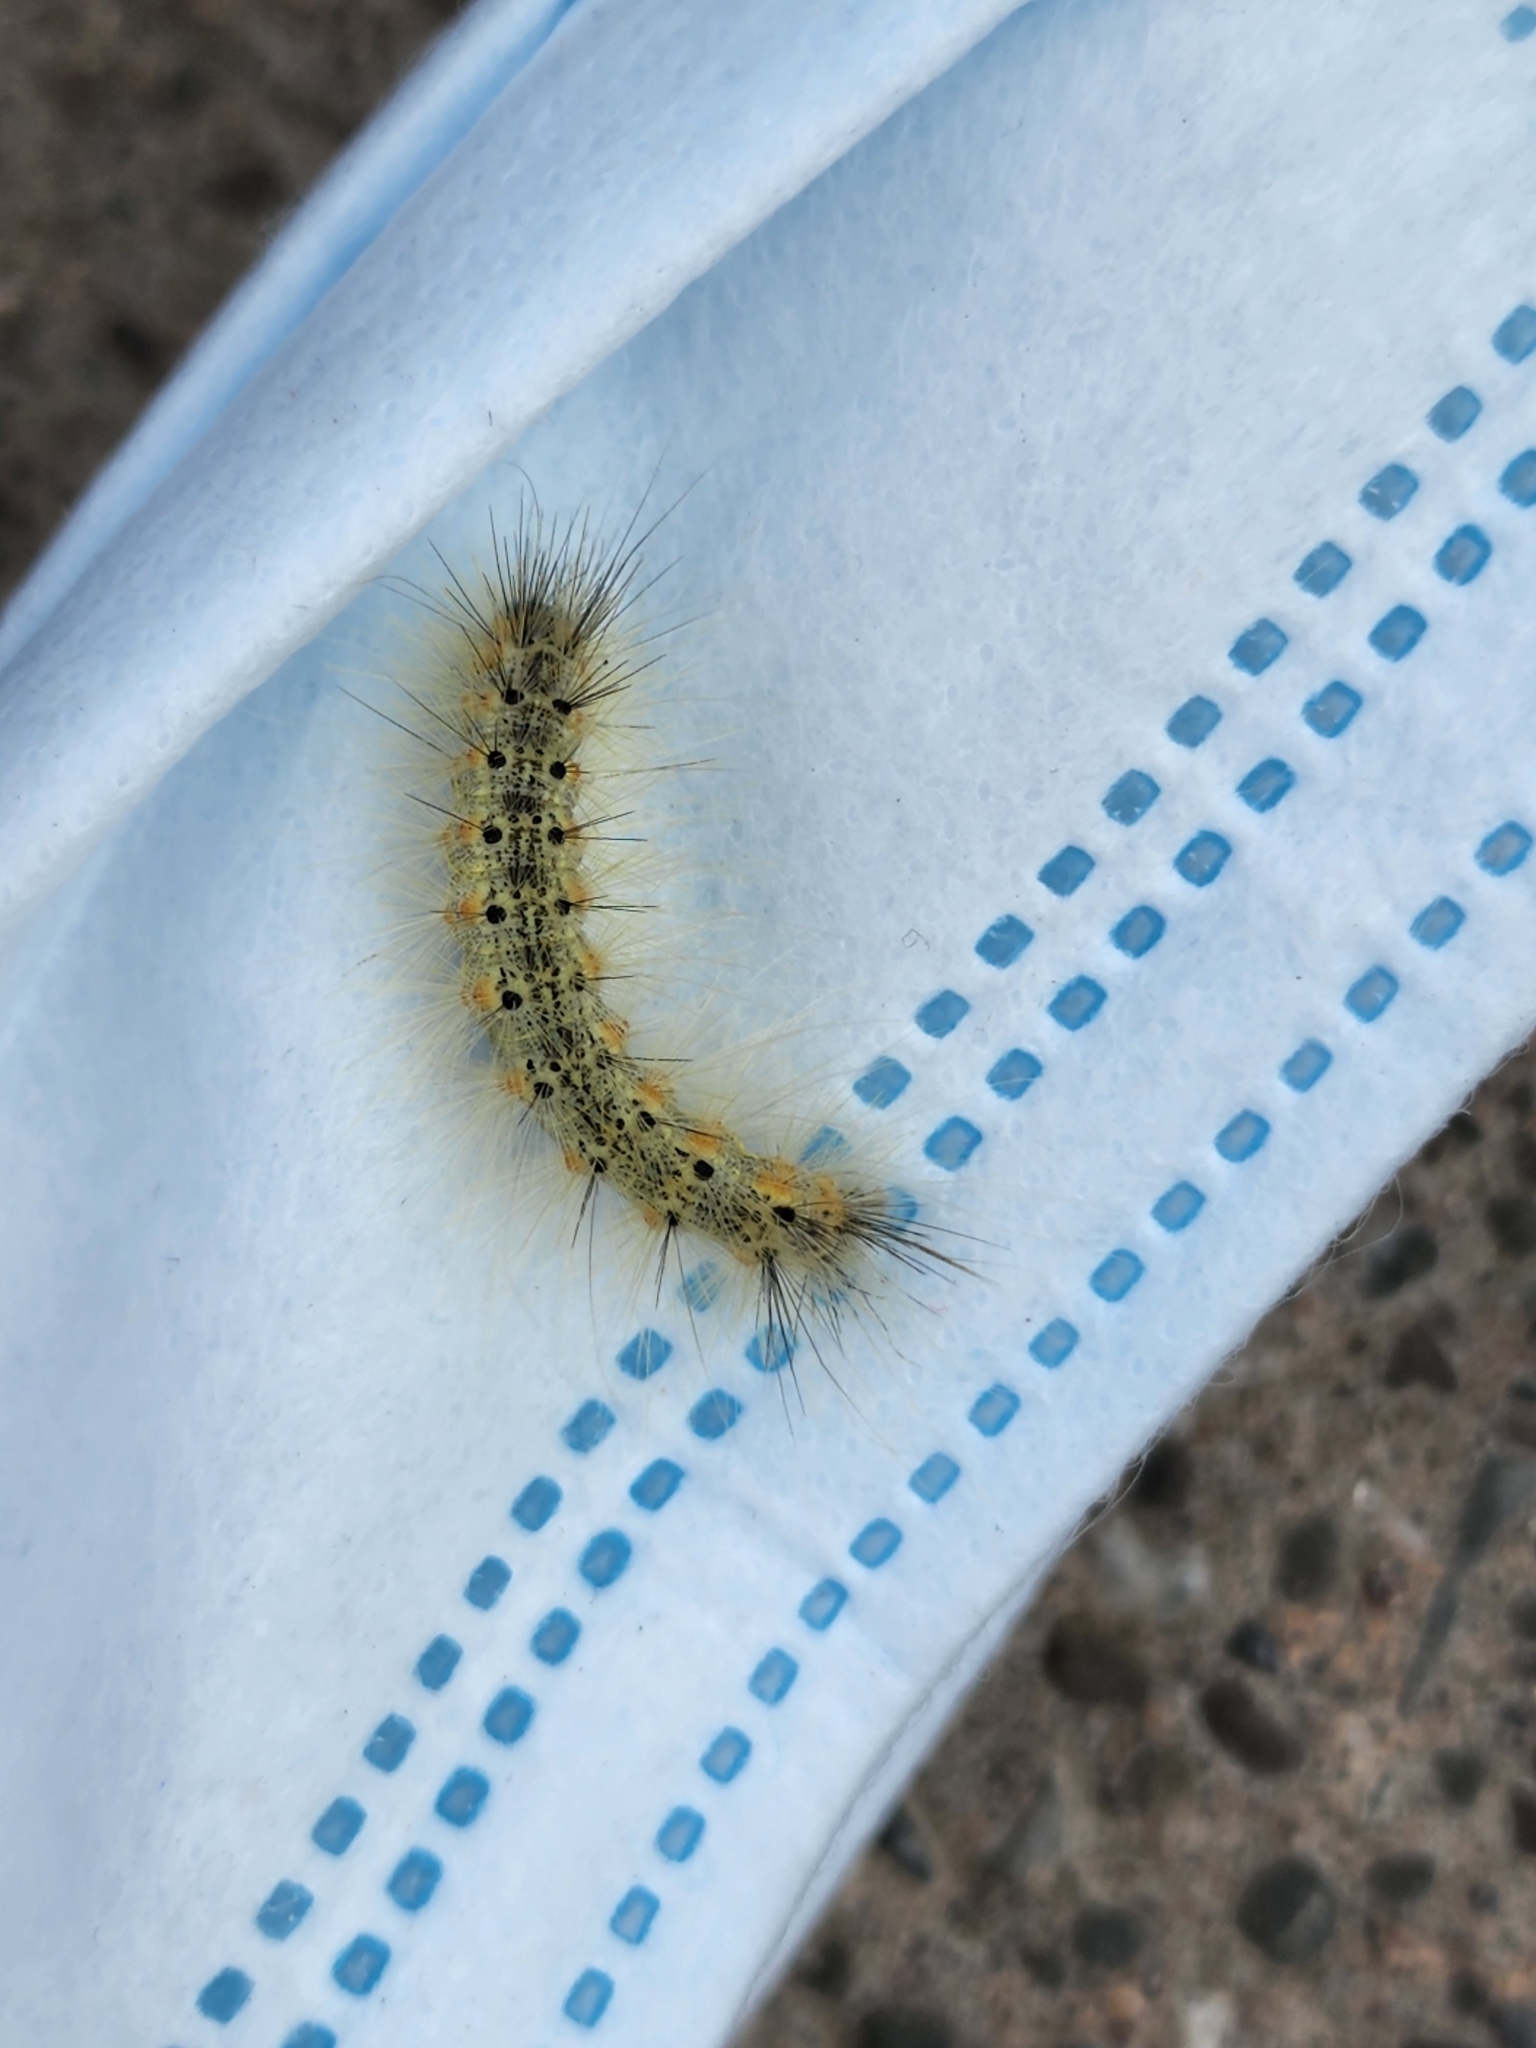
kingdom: Animalia
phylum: Arthropoda
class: Insecta
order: Lepidoptera
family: Erebidae
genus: Hyphantria
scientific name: Hyphantria cunea
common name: American white moth
